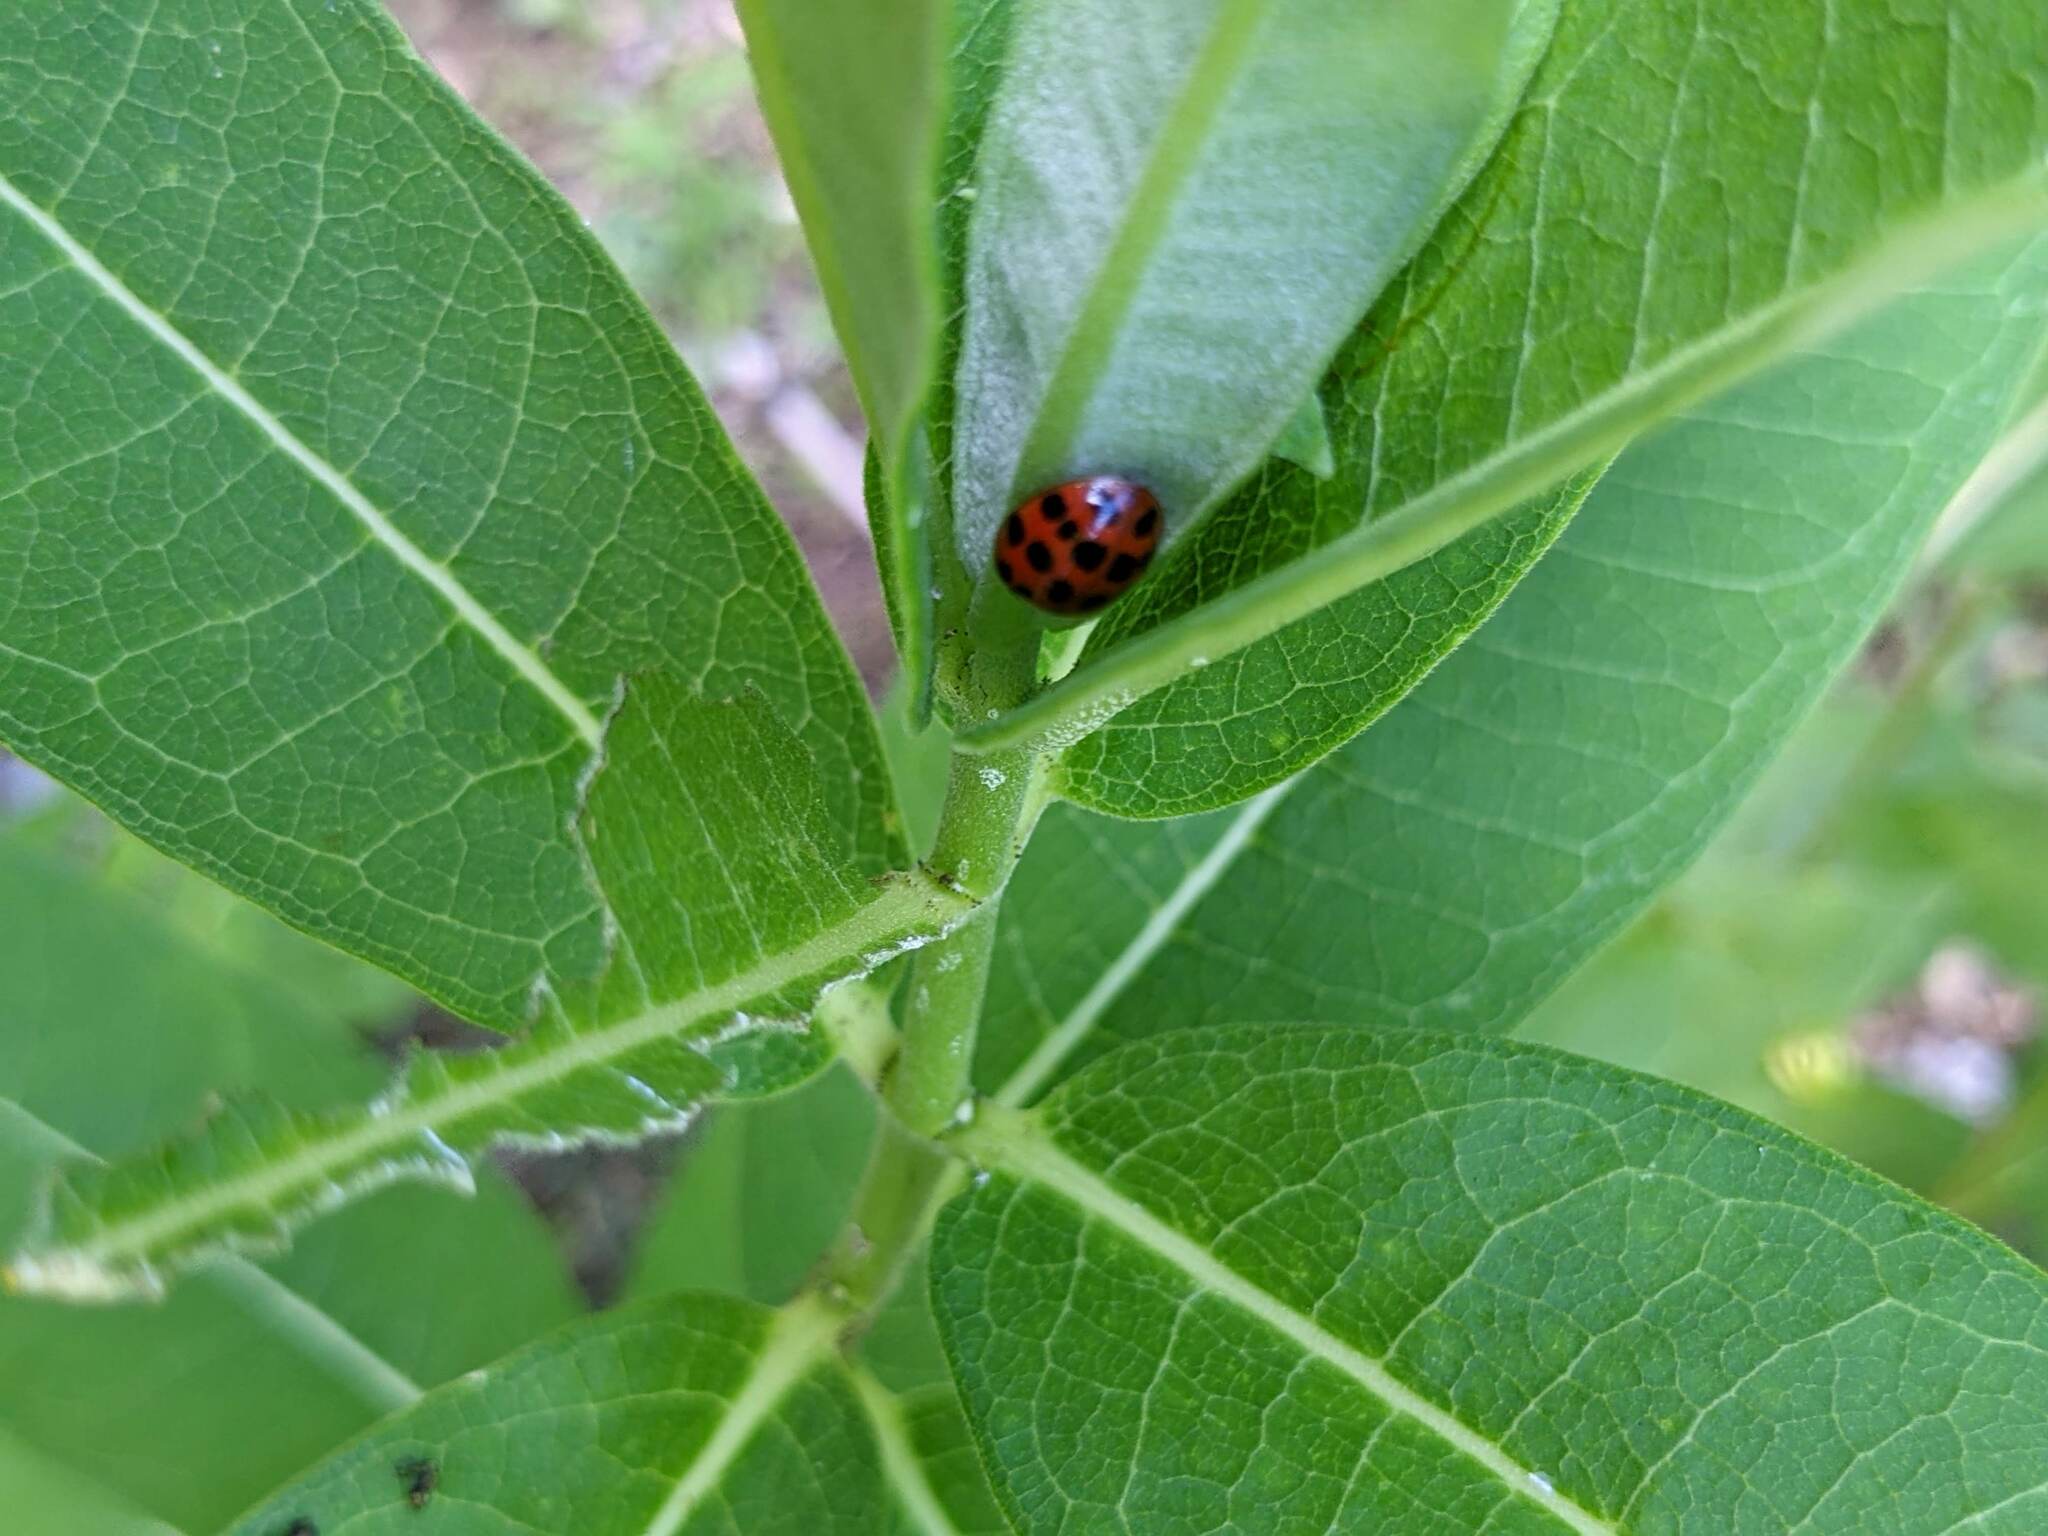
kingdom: Animalia
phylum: Arthropoda
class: Insecta
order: Coleoptera
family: Coccinellidae
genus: Harmonia
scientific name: Harmonia axyridis
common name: Harlequin ladybird
